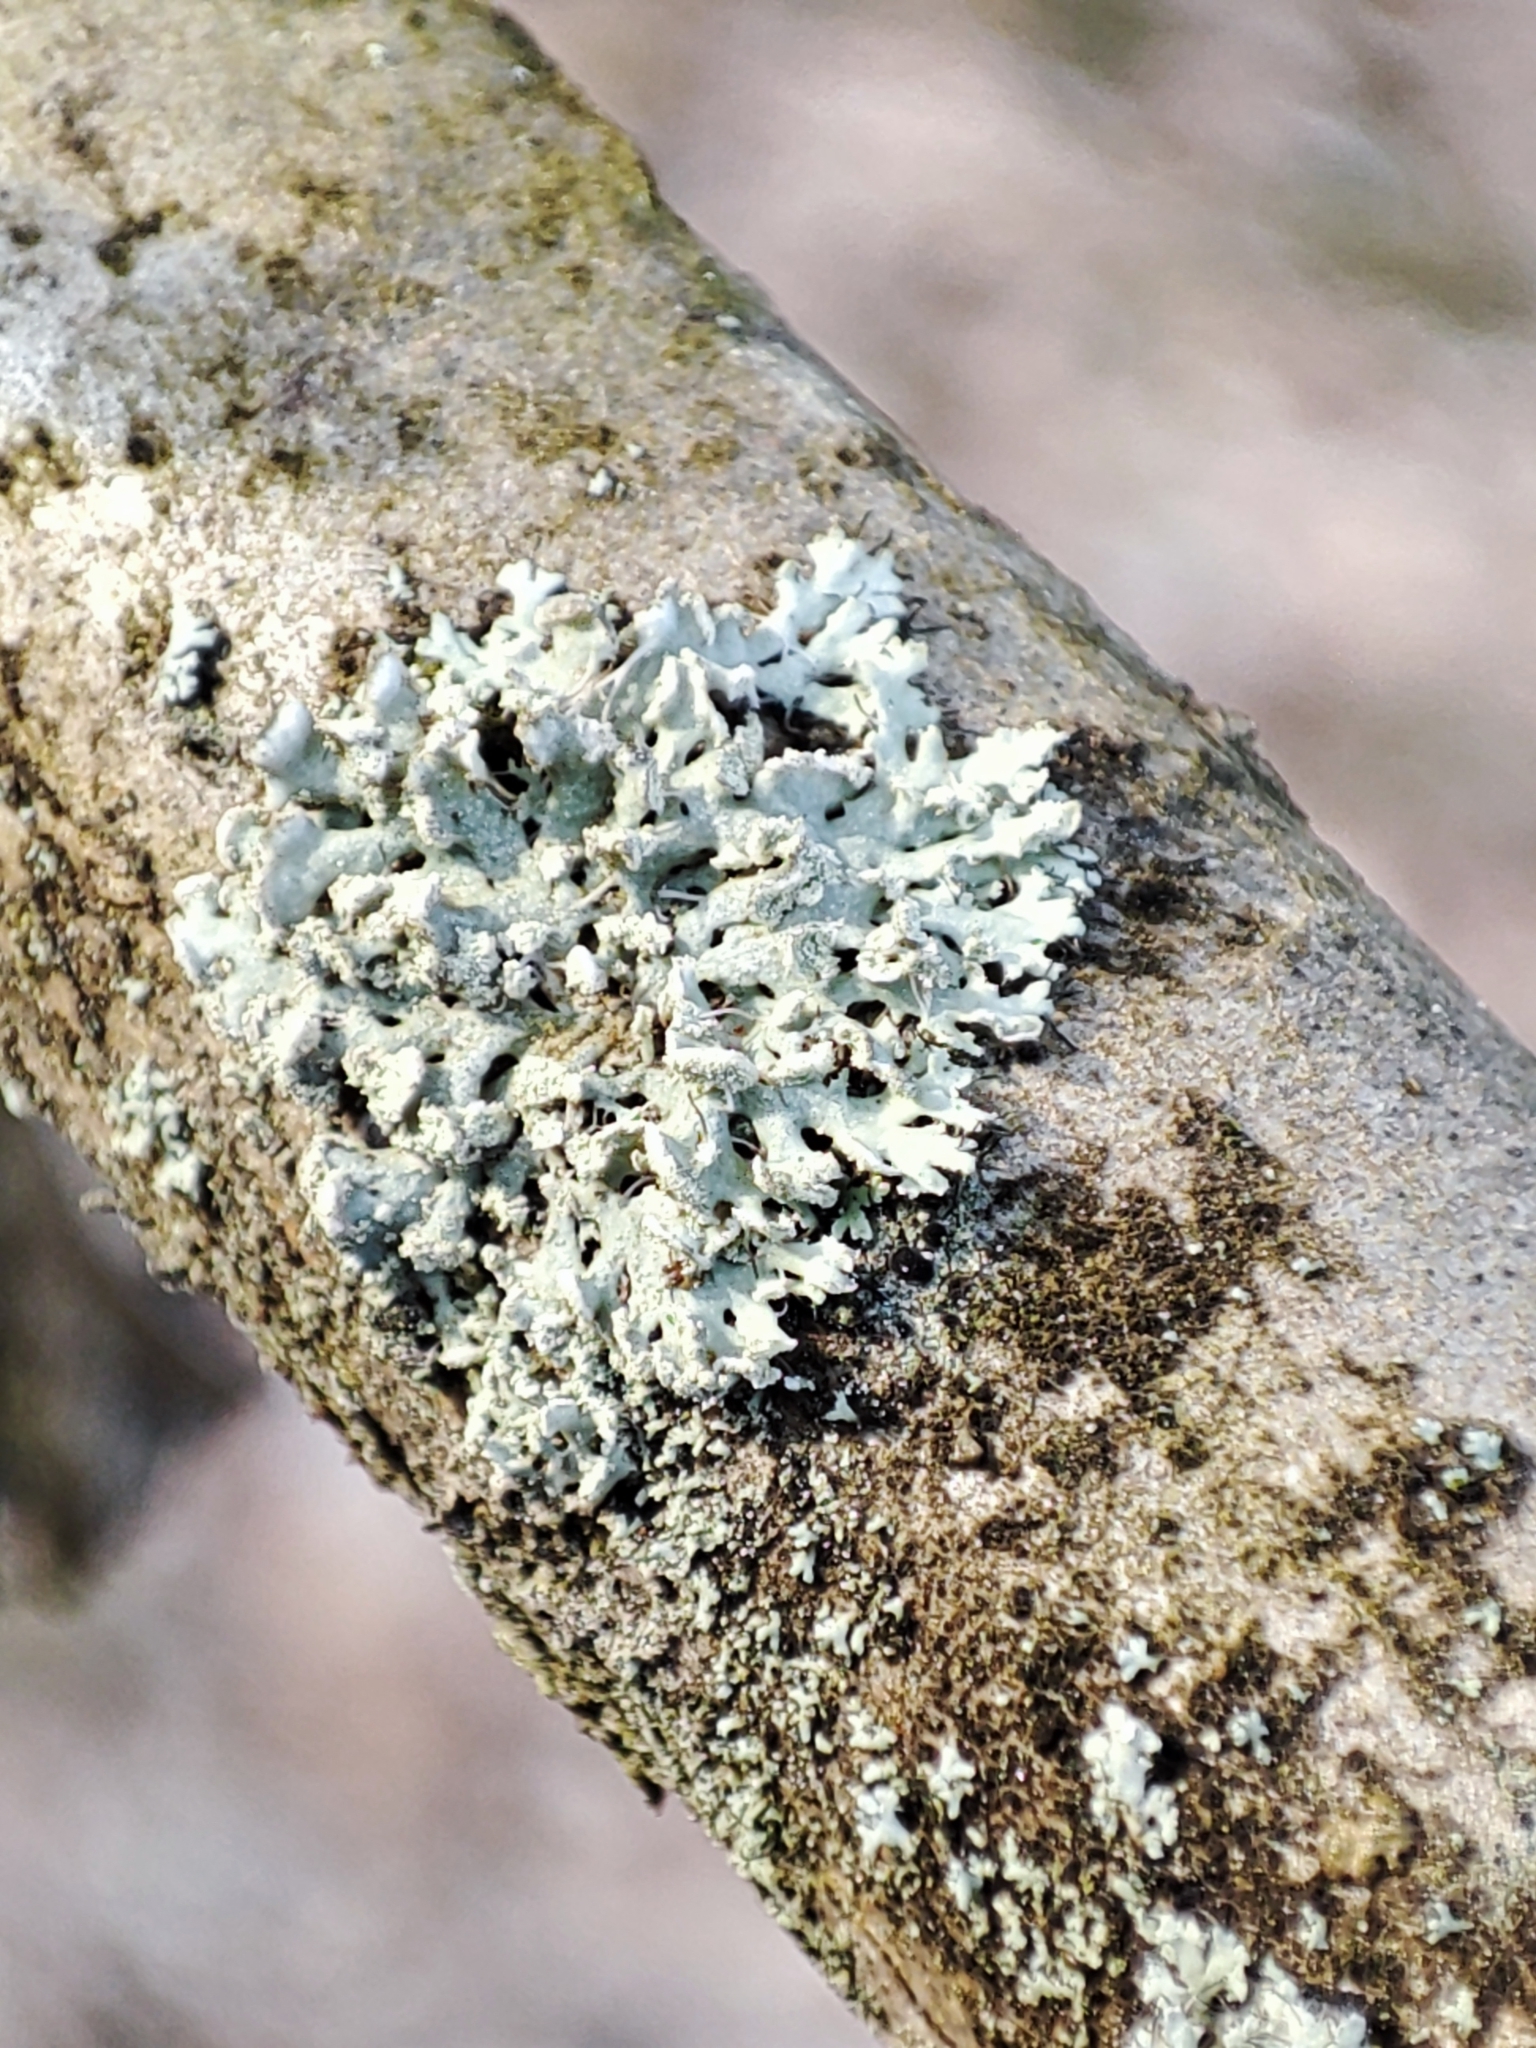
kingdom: Fungi
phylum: Ascomycota
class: Lecanoromycetes
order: Caliciales
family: Physciaceae
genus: Physcia
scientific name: Physcia dubia
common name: Powder-tipped rosette lichen
